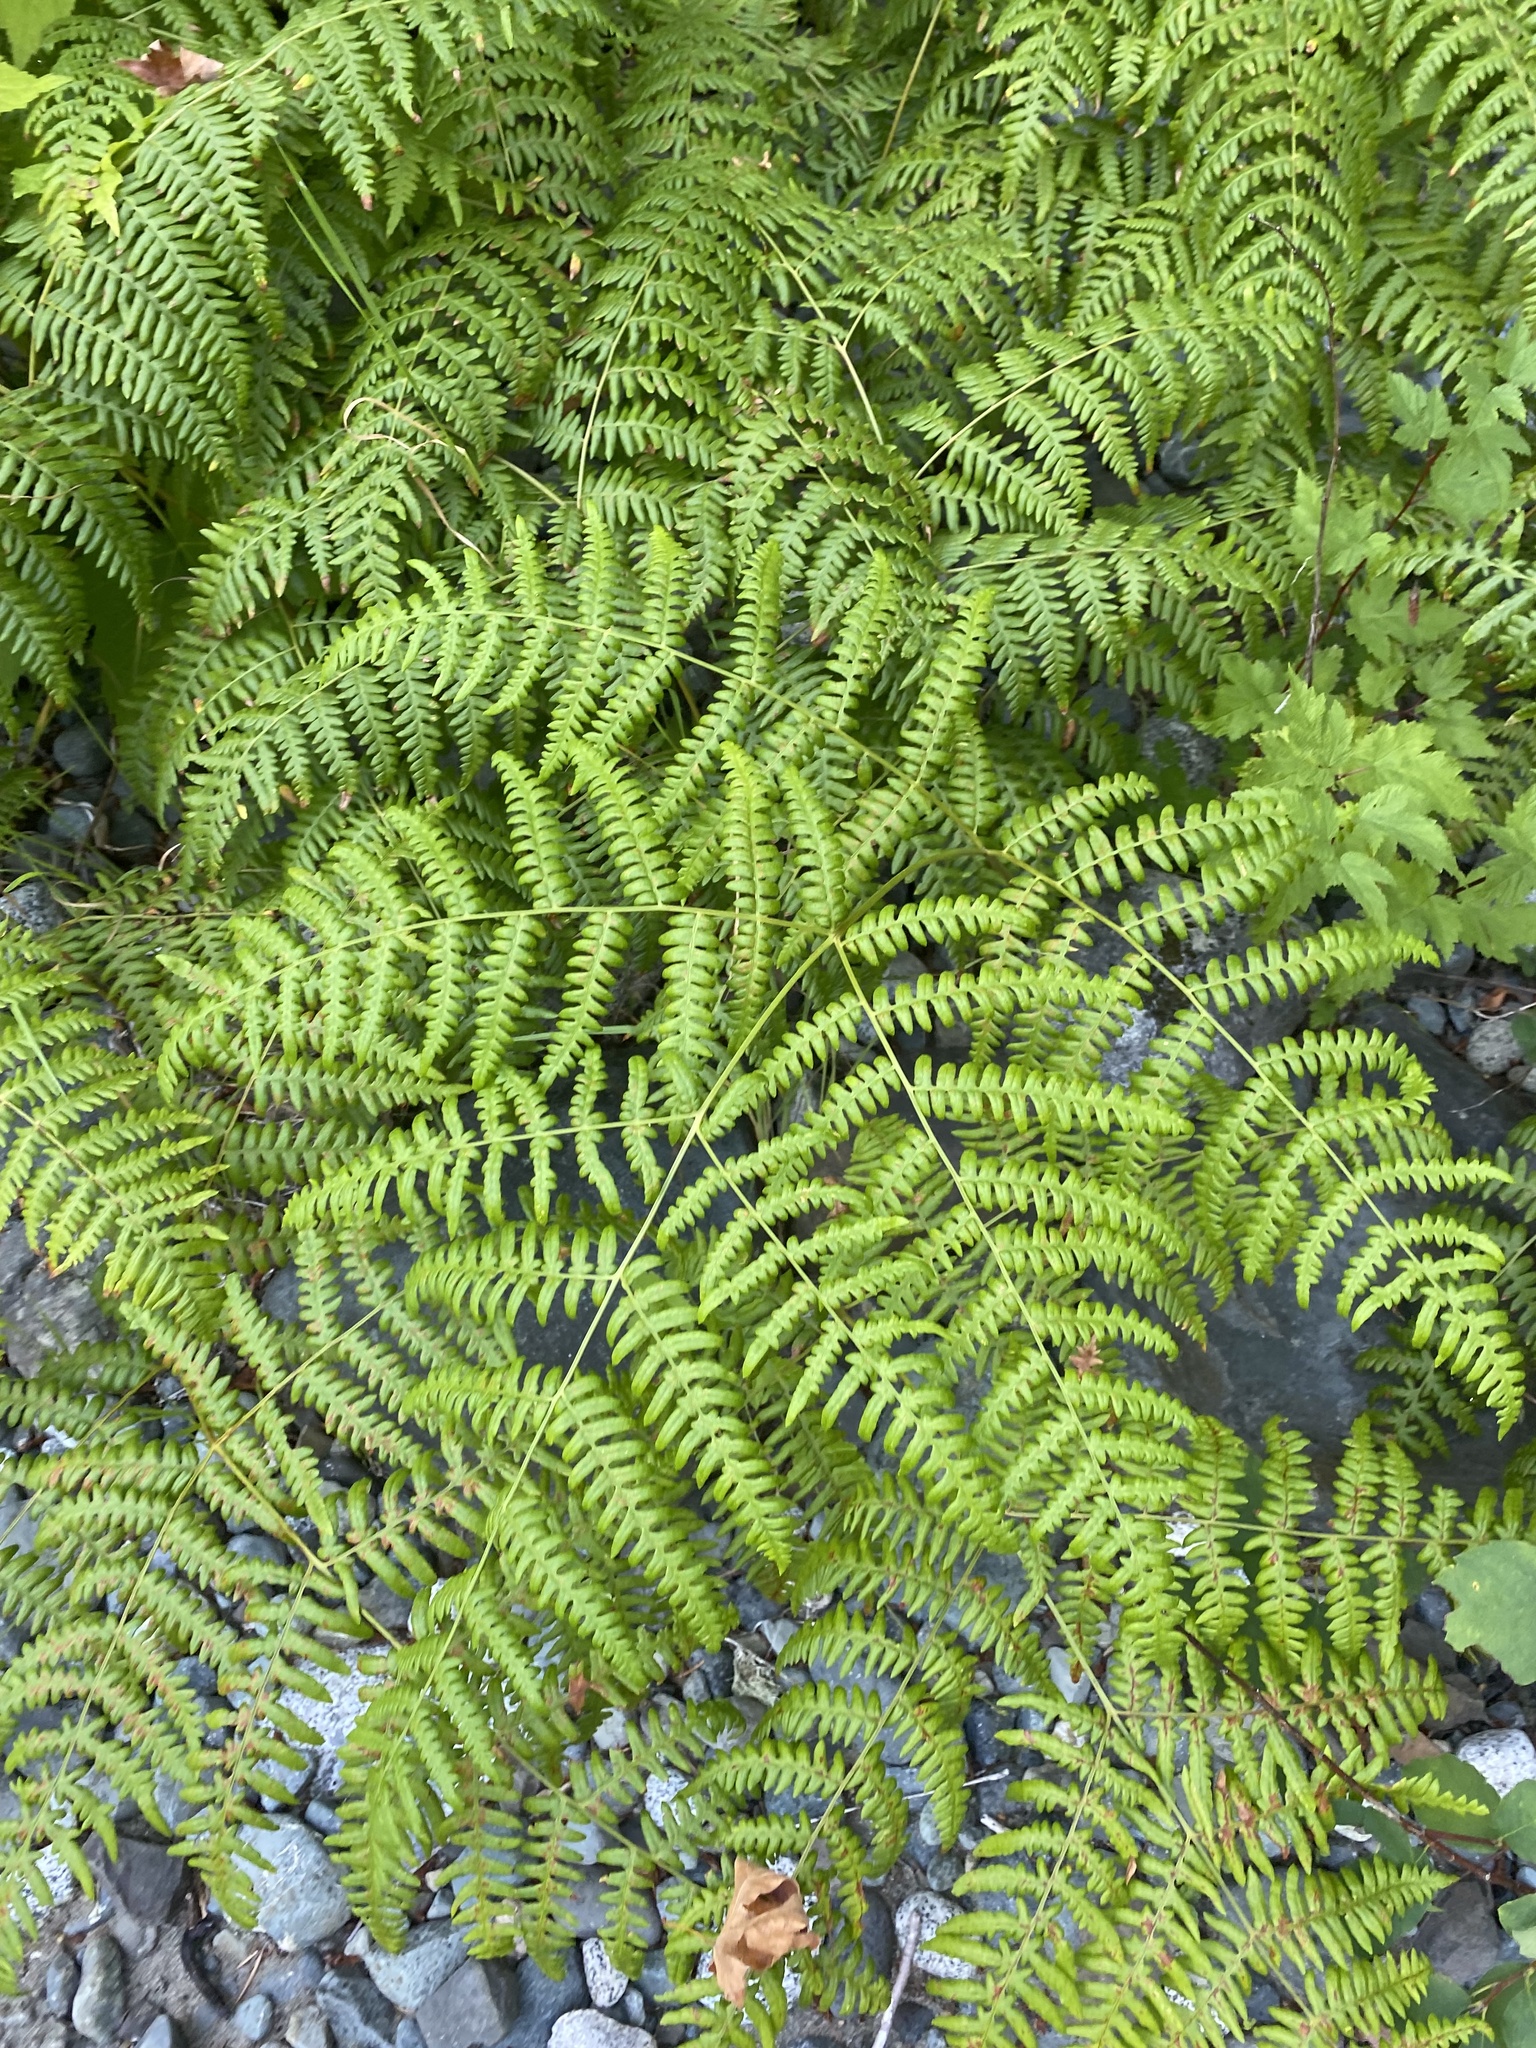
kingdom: Plantae
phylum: Tracheophyta
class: Polypodiopsida
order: Polypodiales
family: Dennstaedtiaceae
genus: Pteridium
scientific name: Pteridium aquilinum
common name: Bracken
